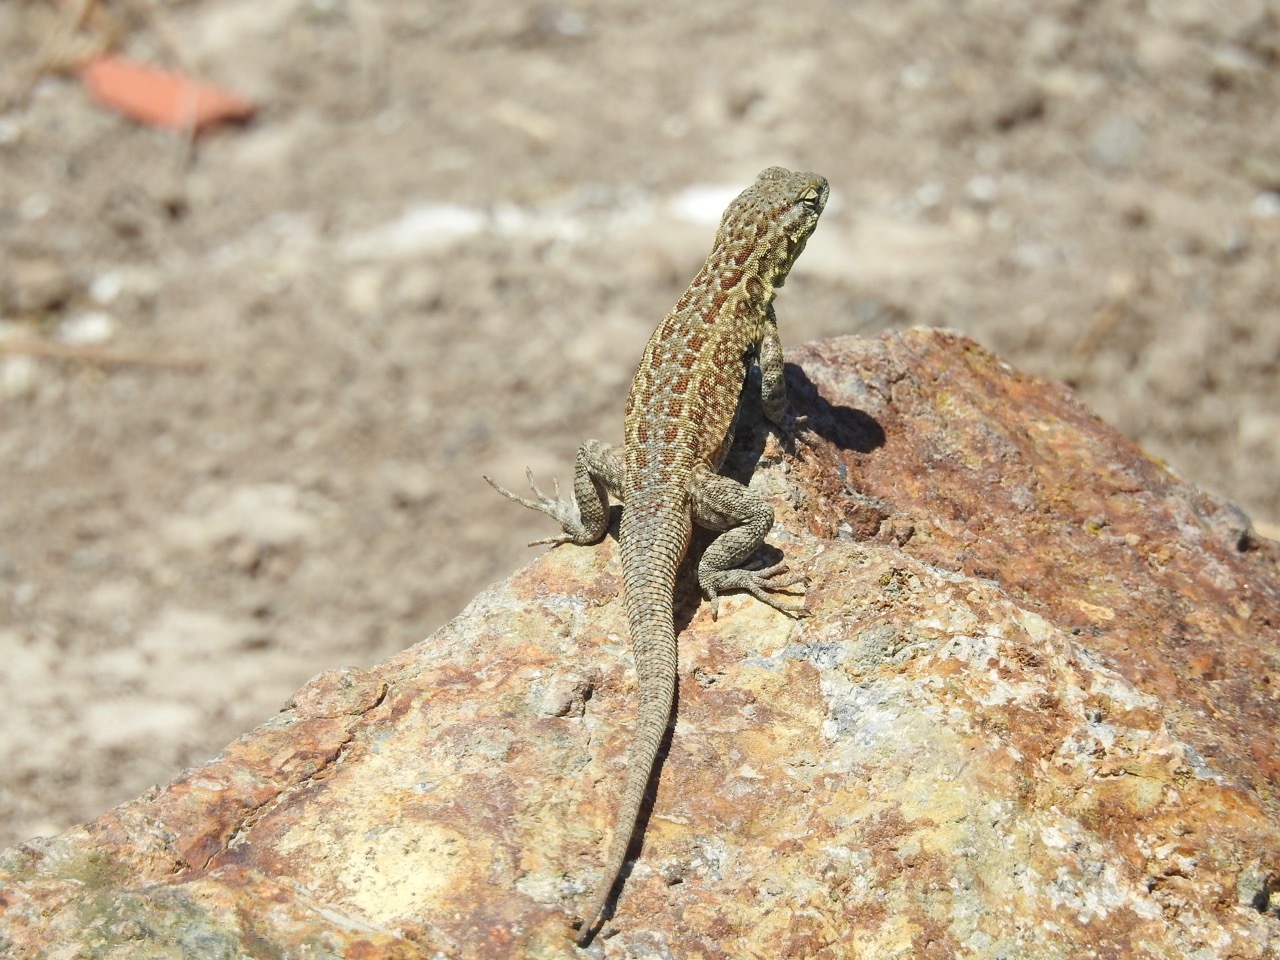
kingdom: Animalia
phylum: Chordata
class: Squamata
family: Phrynosomatidae
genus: Uta
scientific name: Uta stansburiana
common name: Side-blotched lizard
